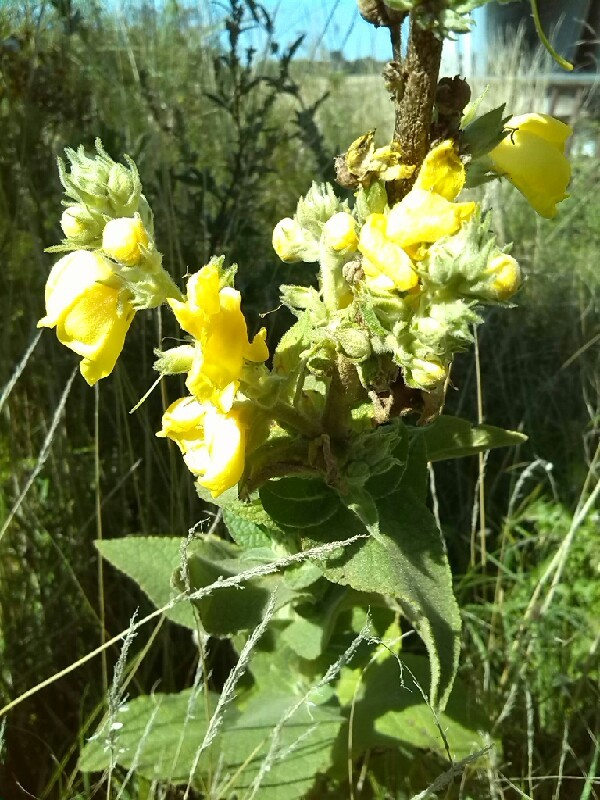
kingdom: Plantae
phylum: Tracheophyta
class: Magnoliopsida
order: Lamiales
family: Scrophulariaceae
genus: Verbascum
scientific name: Verbascum phlomoides
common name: Orange mullein
